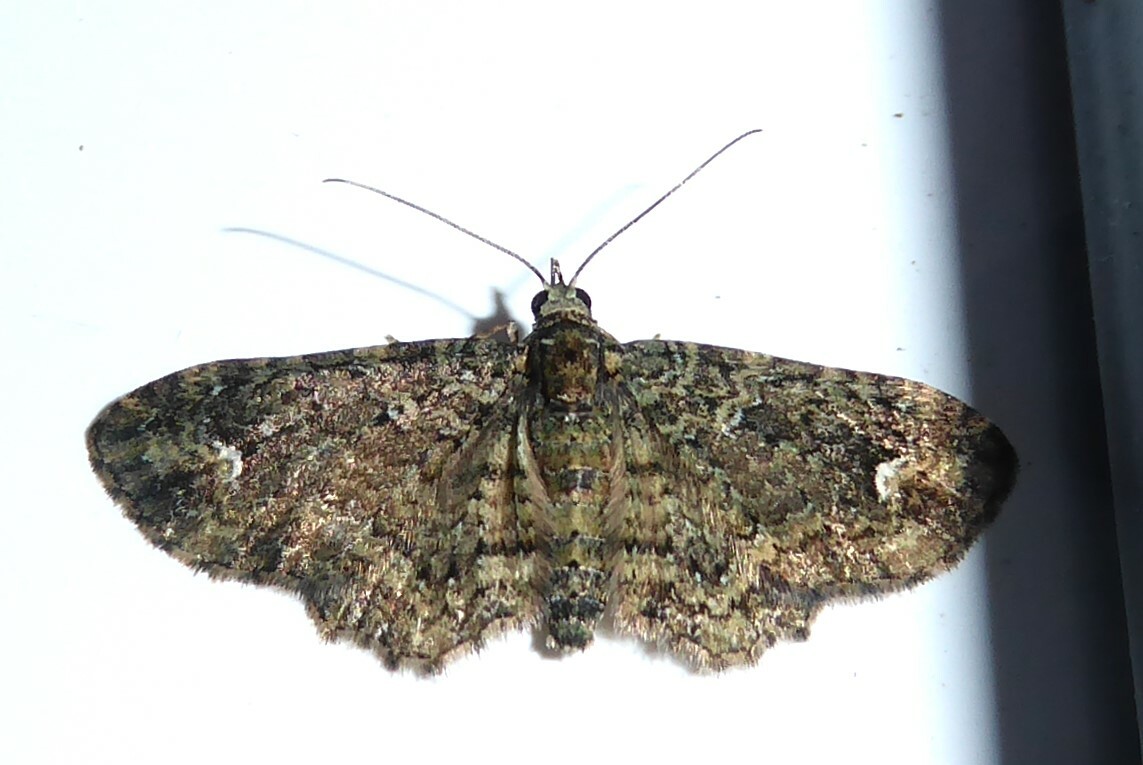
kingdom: Animalia
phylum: Arthropoda
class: Insecta
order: Lepidoptera
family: Geometridae
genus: Pasiphilodes
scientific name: Pasiphilodes testulata
